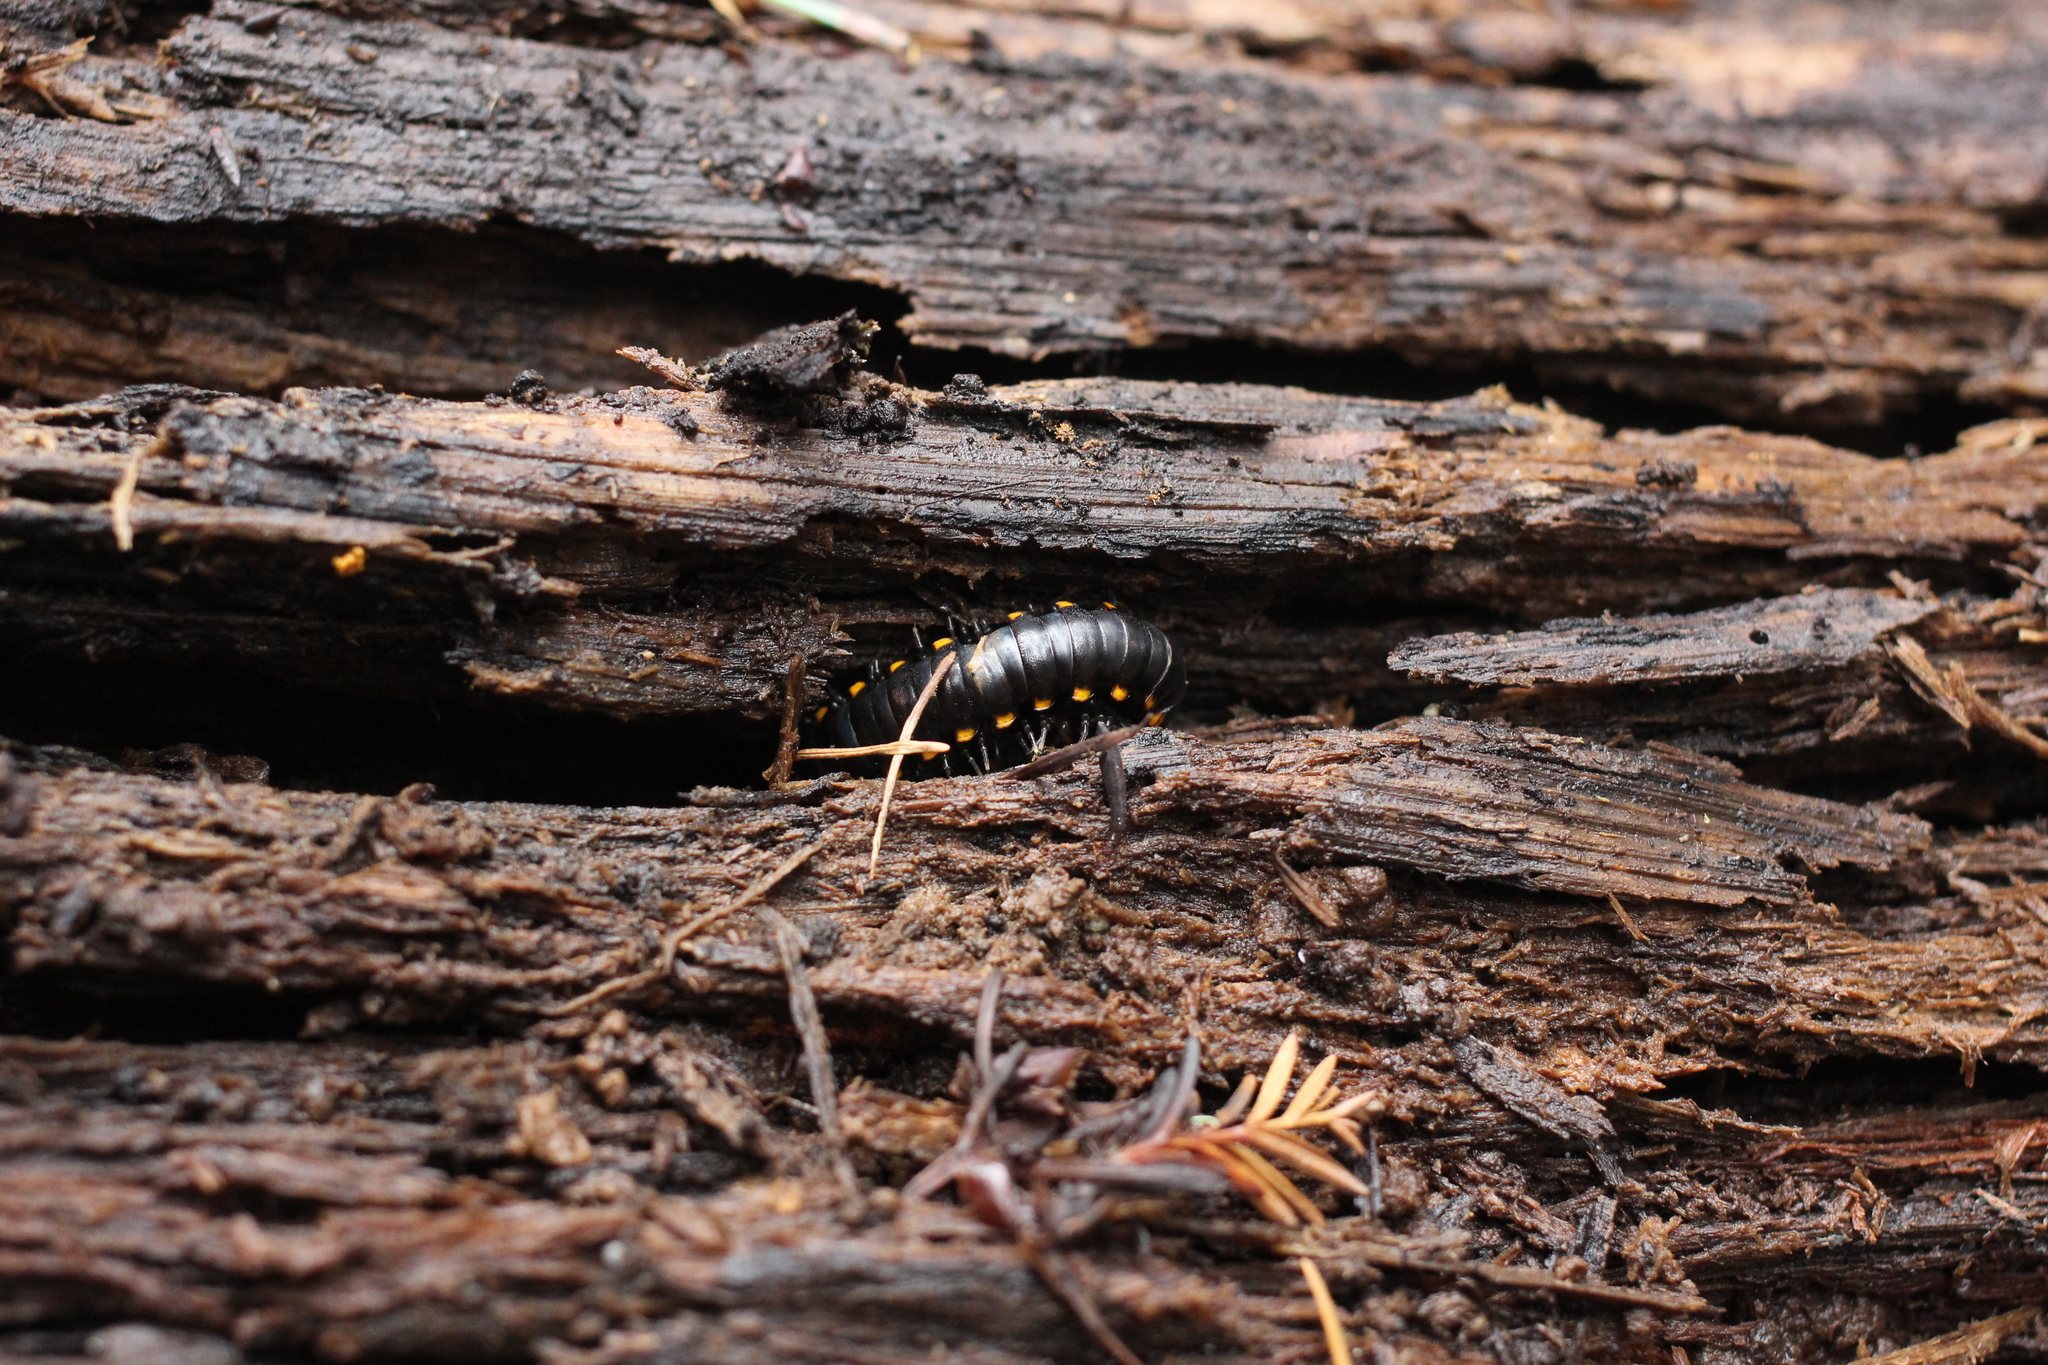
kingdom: Animalia
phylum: Arthropoda
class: Diplopoda
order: Polydesmida
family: Xystodesmidae
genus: Harpaphe
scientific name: Harpaphe haydeniana
